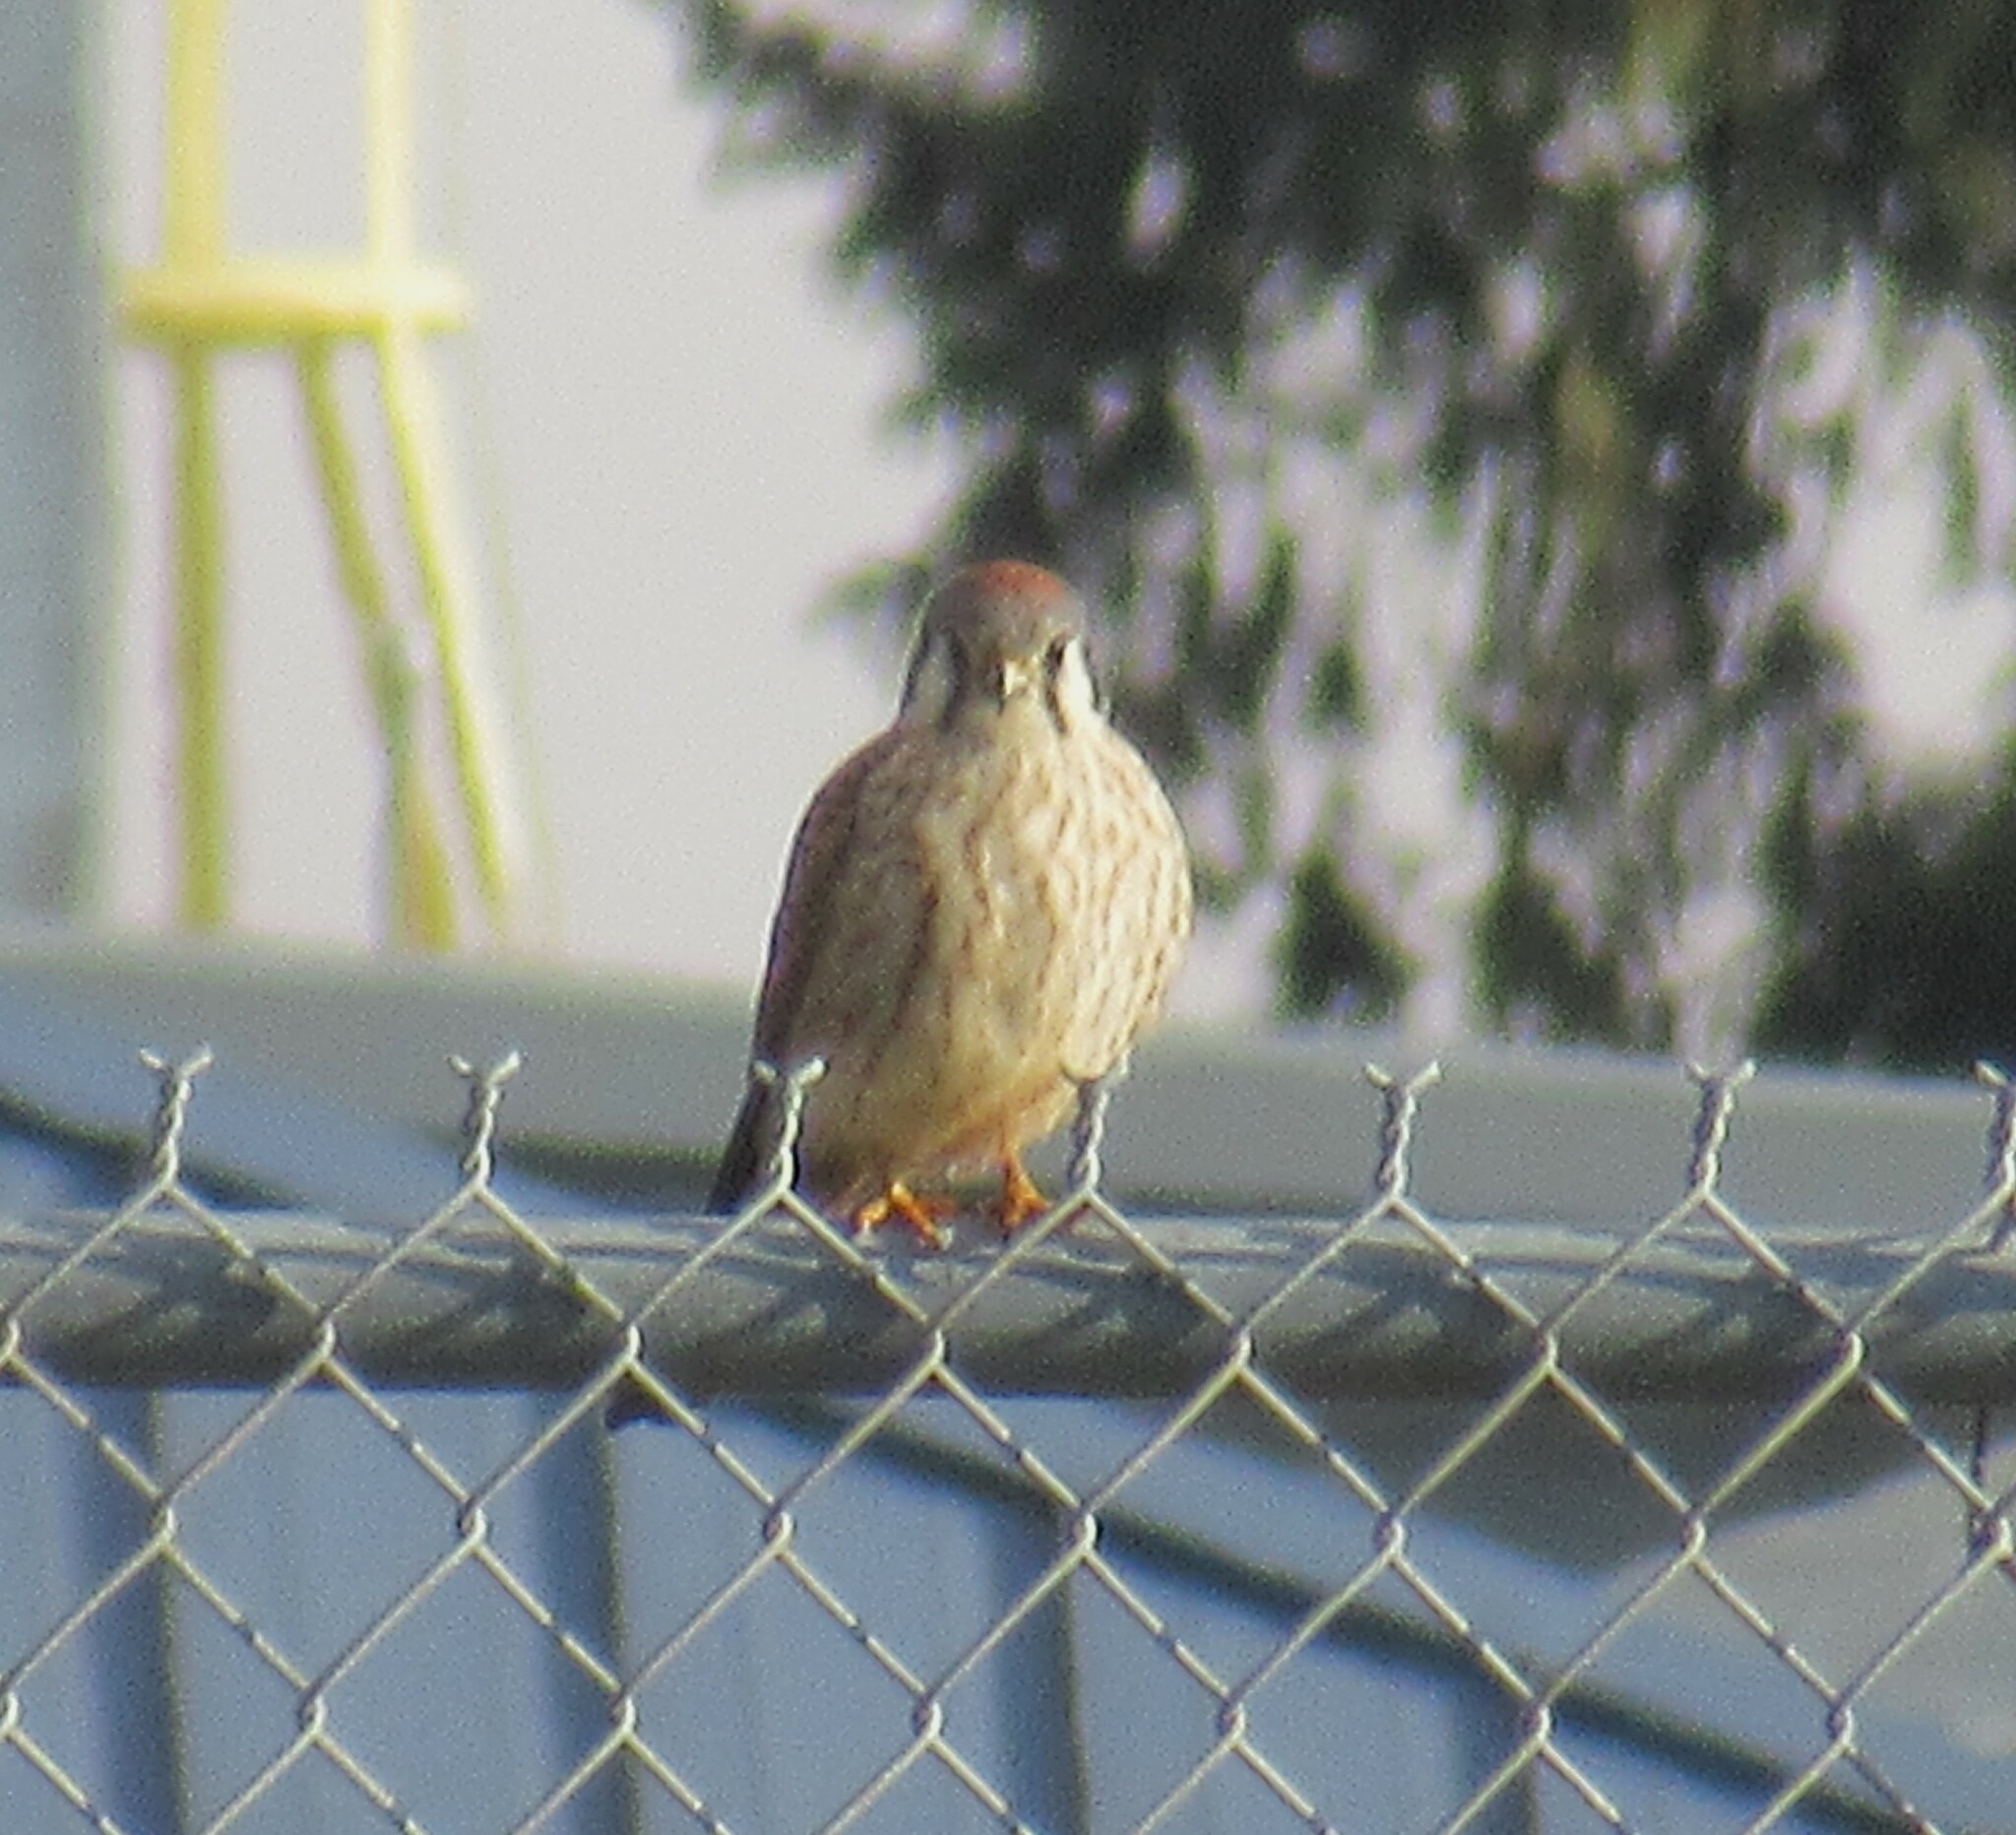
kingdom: Animalia
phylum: Chordata
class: Aves
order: Falconiformes
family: Falconidae
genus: Falco
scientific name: Falco sparverius
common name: American kestrel
